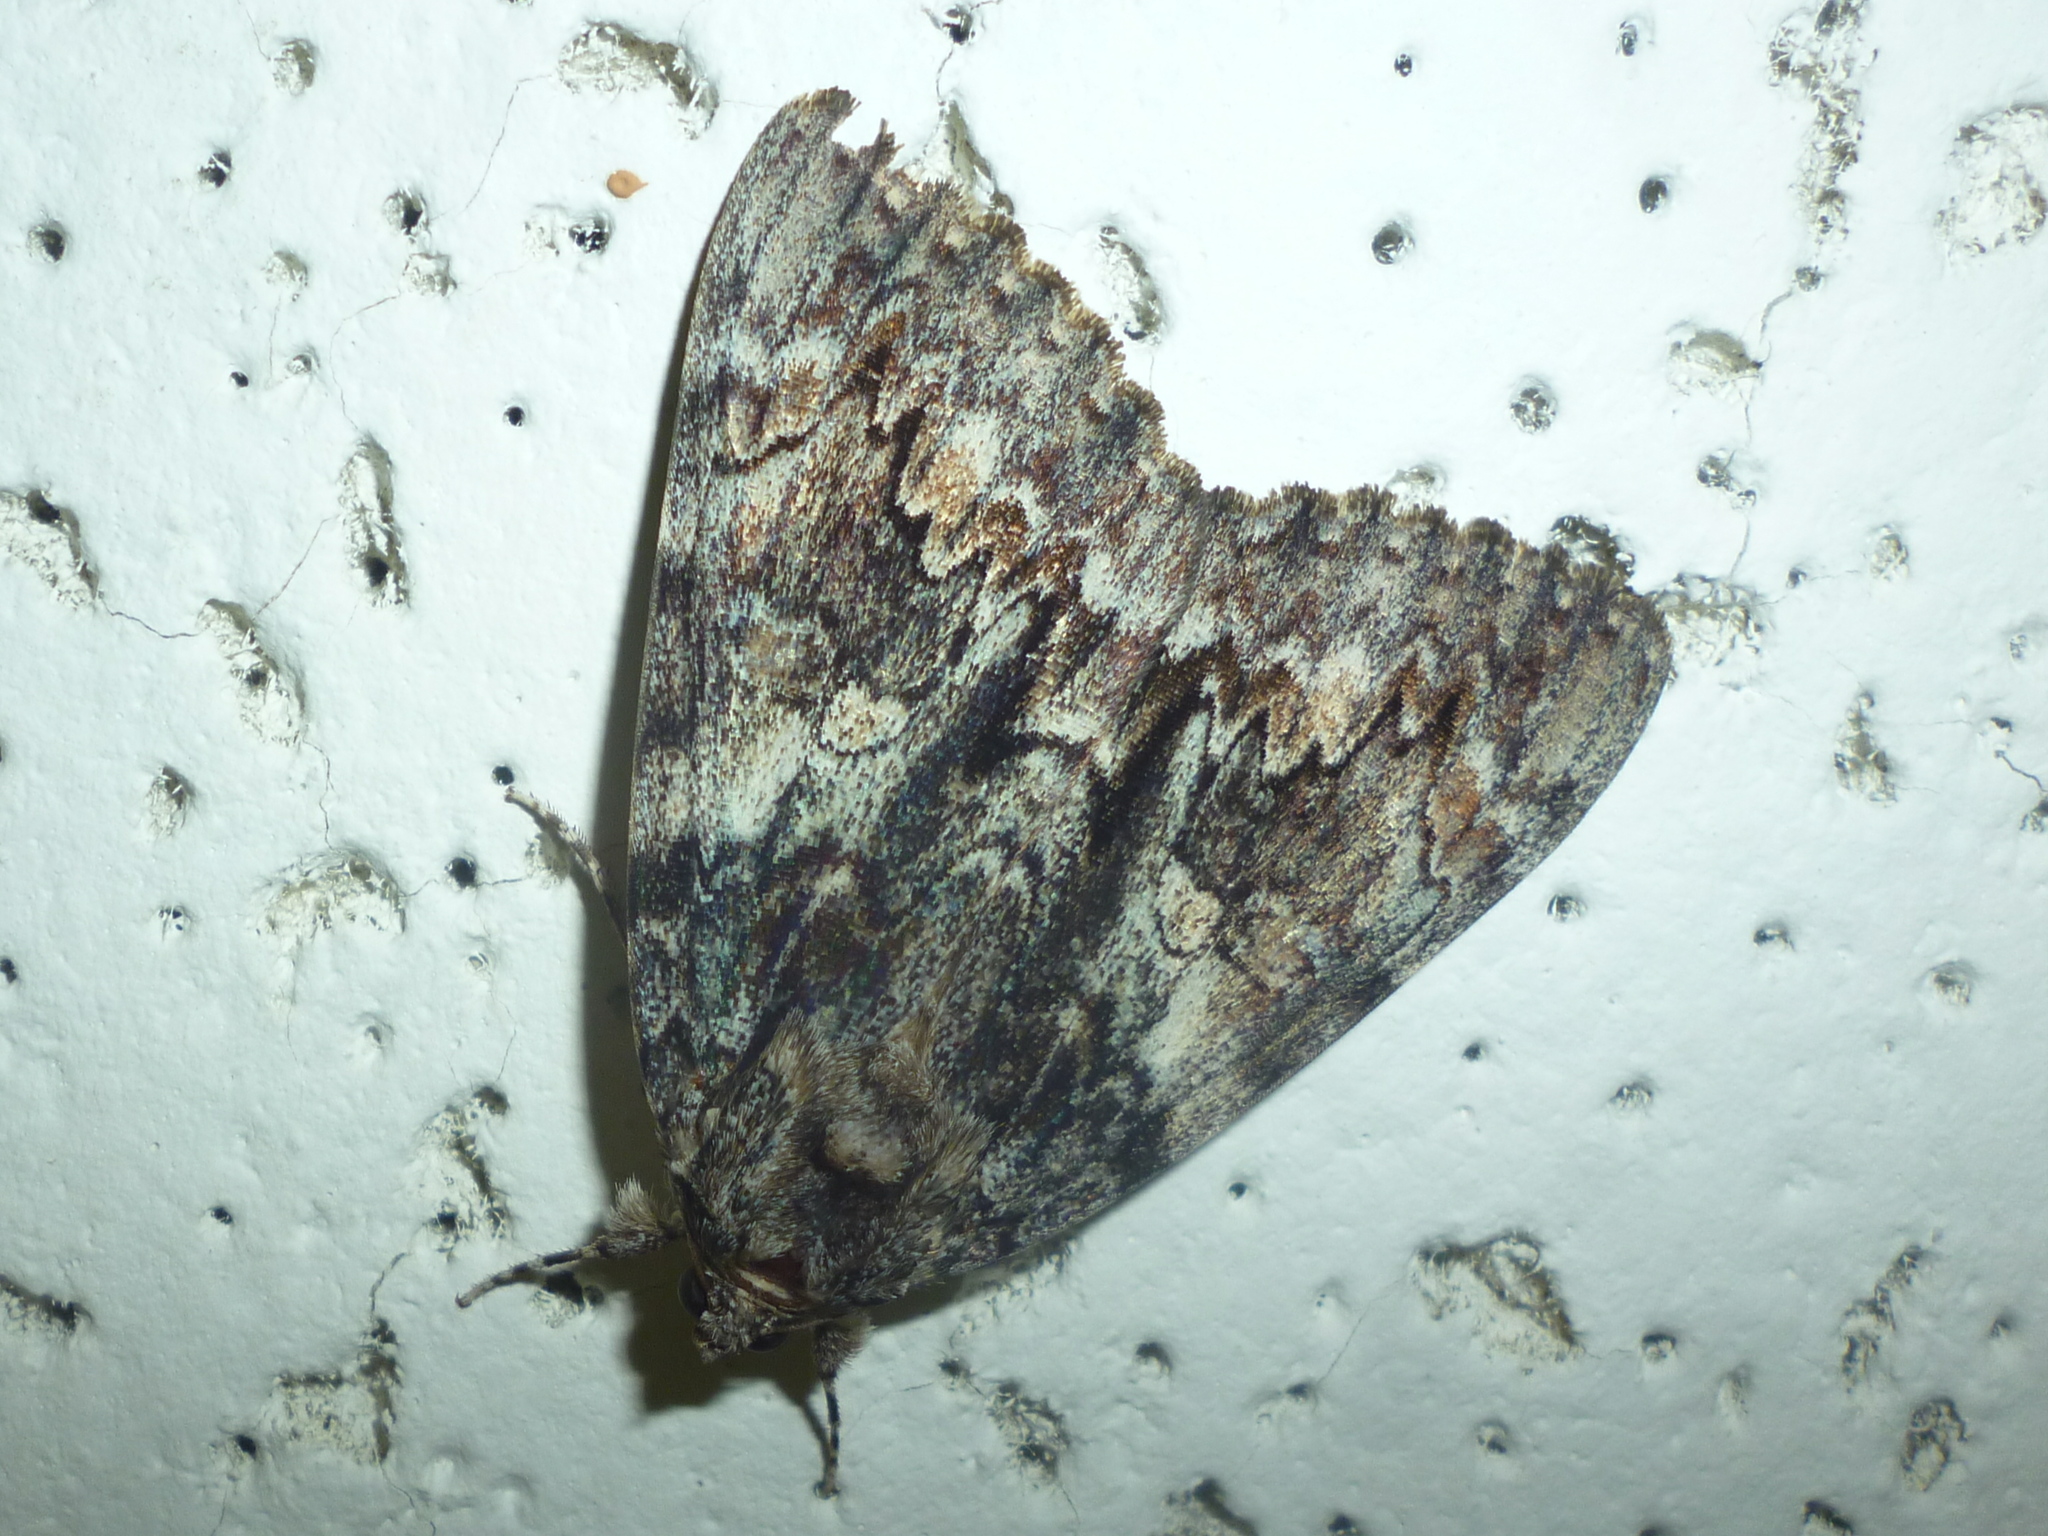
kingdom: Animalia
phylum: Arthropoda
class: Insecta
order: Lepidoptera
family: Erebidae
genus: Catocala
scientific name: Catocala palaeogama
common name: Oldwife underwing
